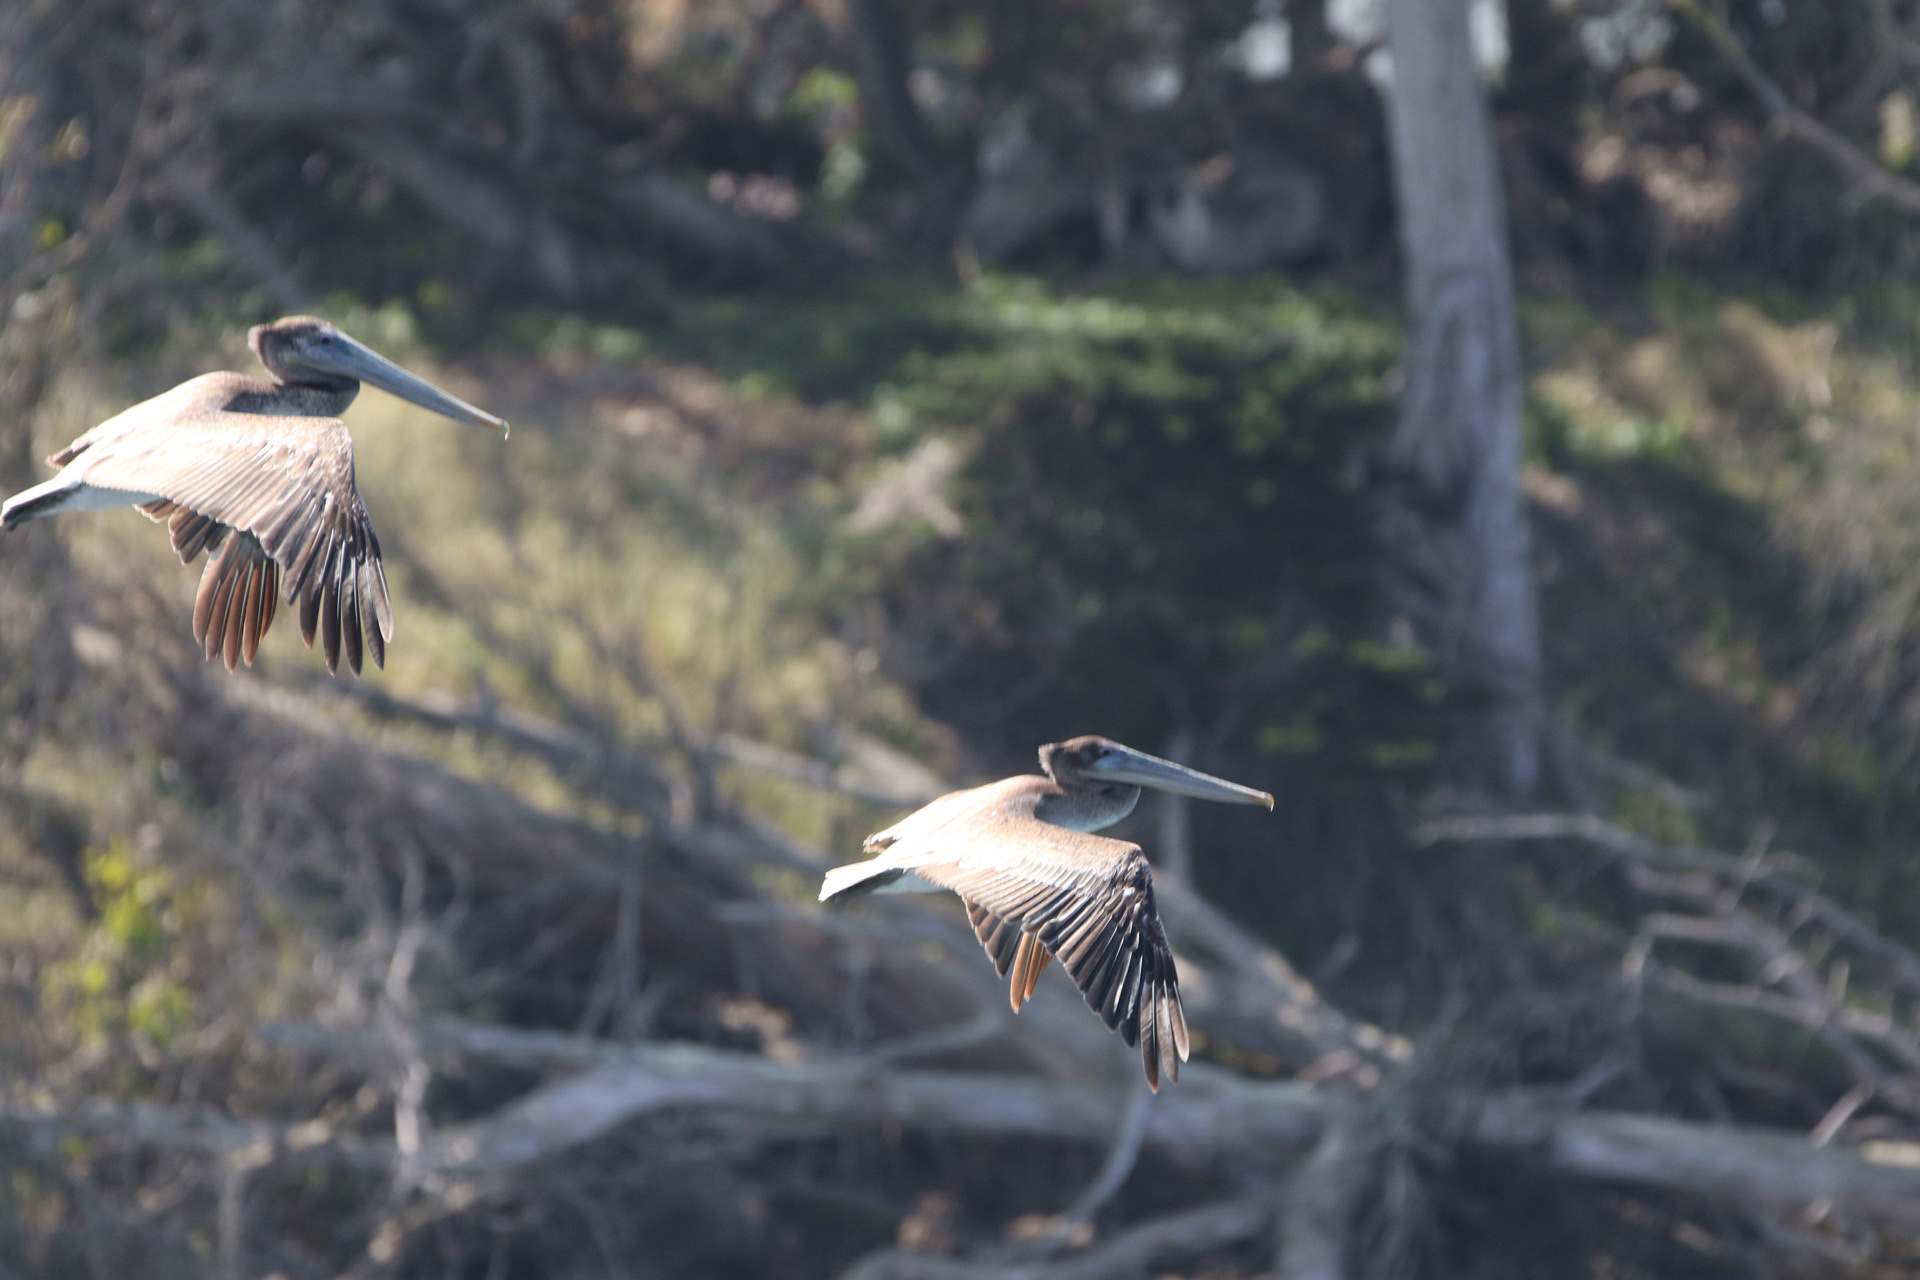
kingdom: Animalia
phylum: Chordata
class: Aves
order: Pelecaniformes
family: Pelecanidae
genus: Pelecanus
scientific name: Pelecanus occidentalis
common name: Brown pelican
